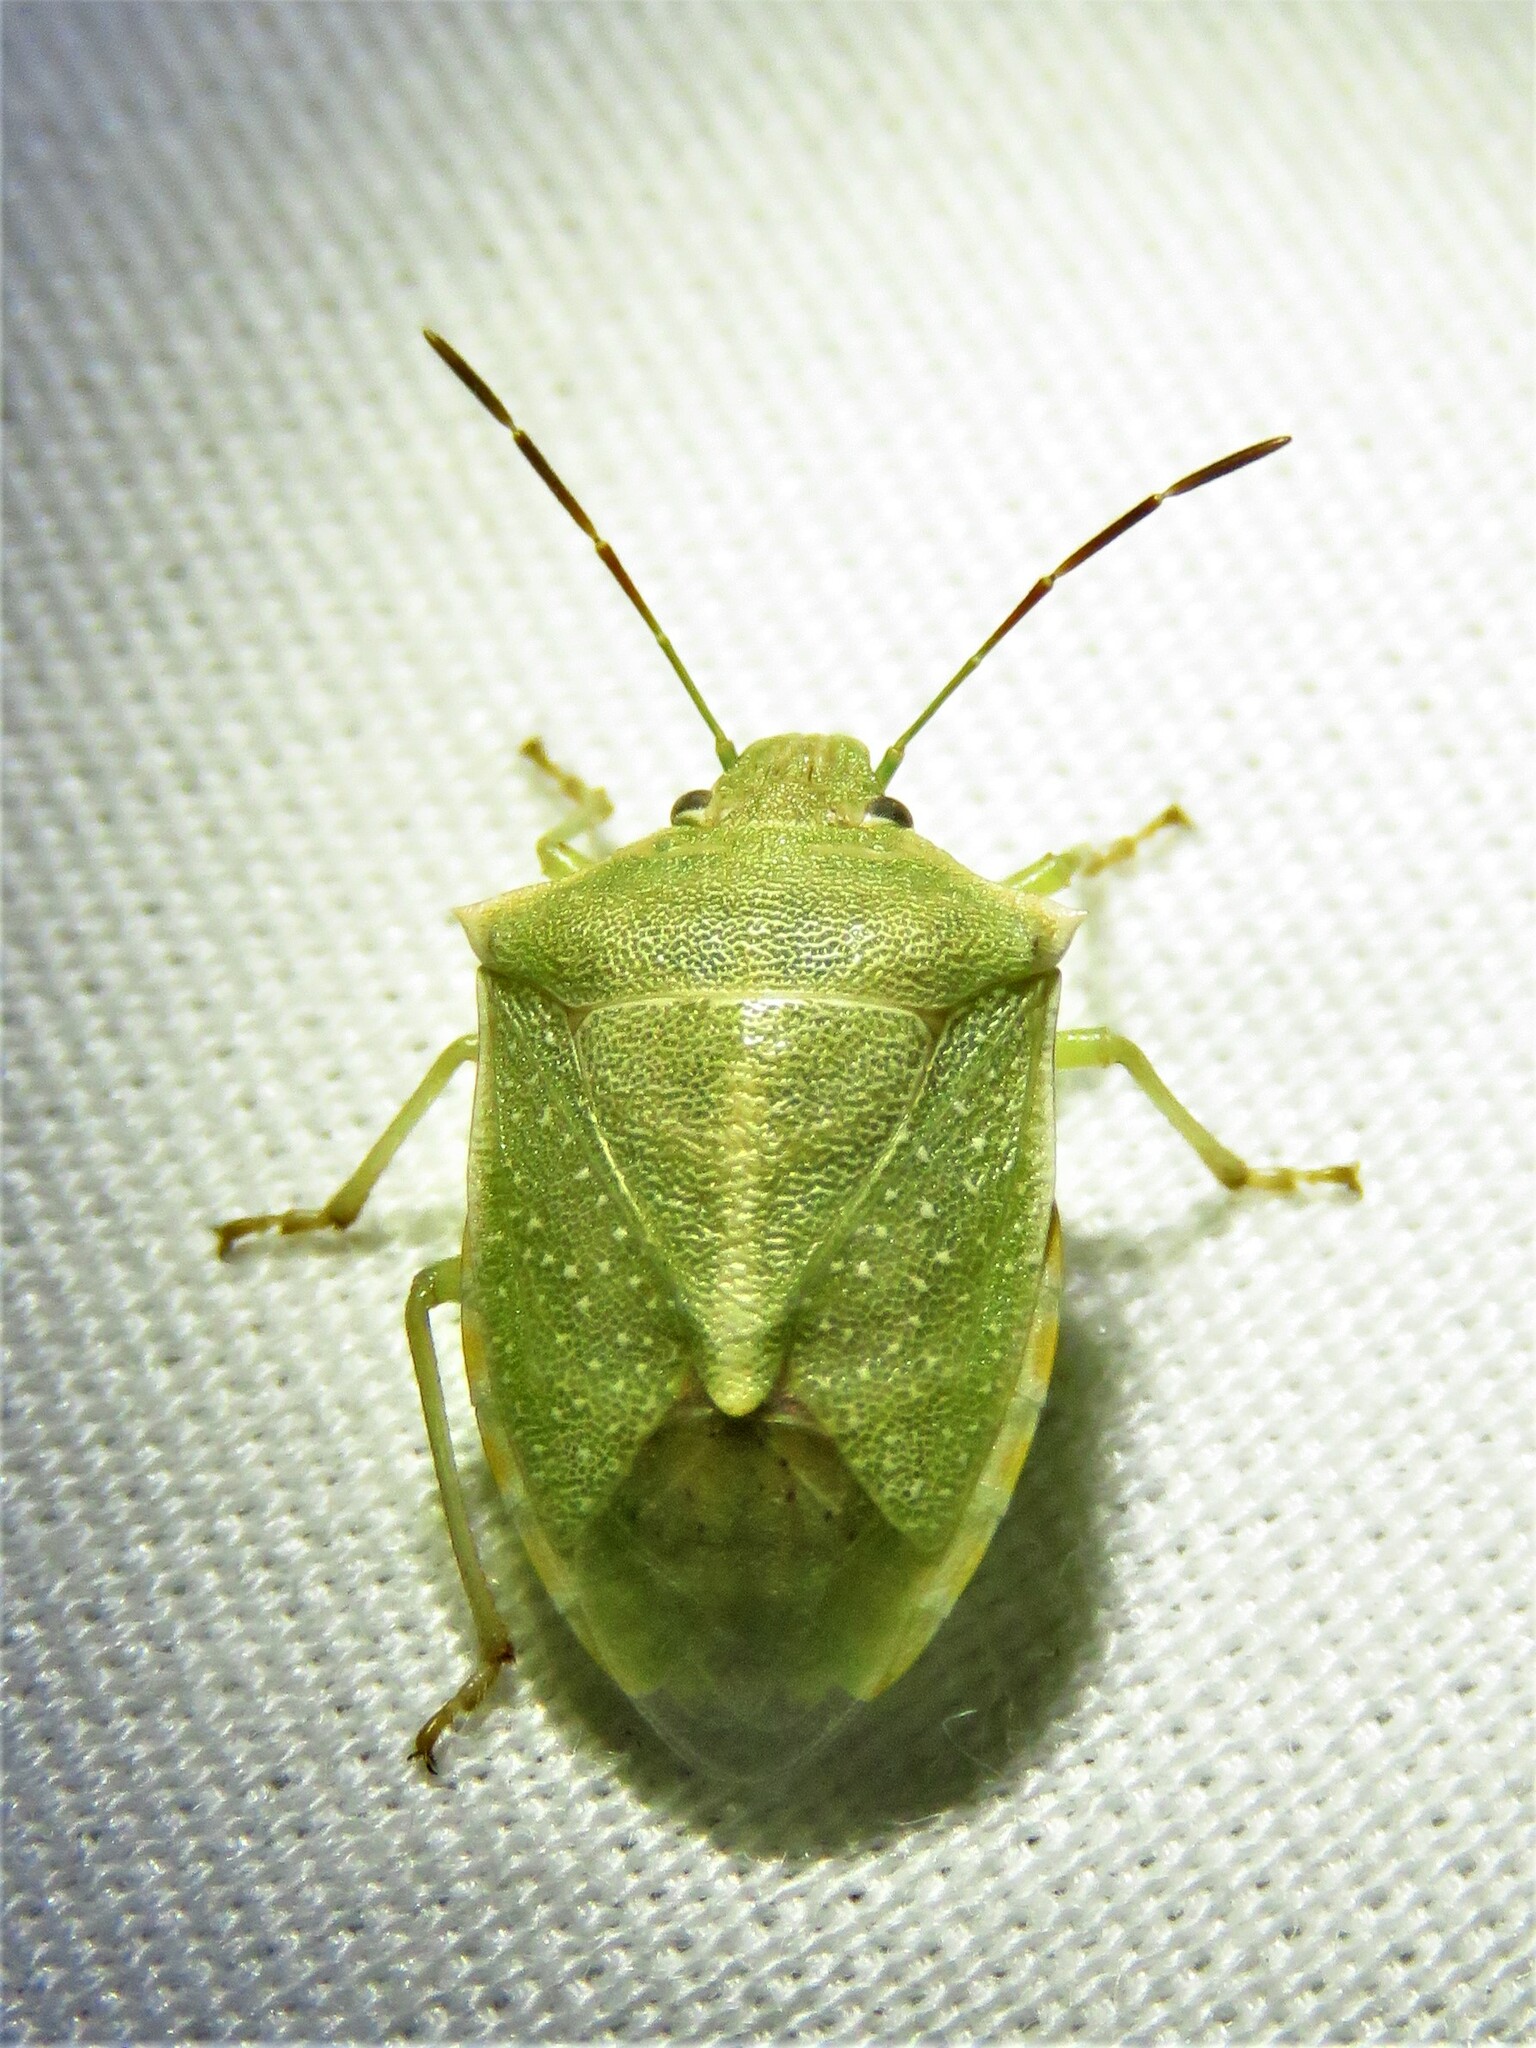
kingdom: Animalia
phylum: Arthropoda
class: Insecta
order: Hemiptera
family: Pentatomidae
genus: Thyanta
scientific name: Thyanta custator
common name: Stink bug
